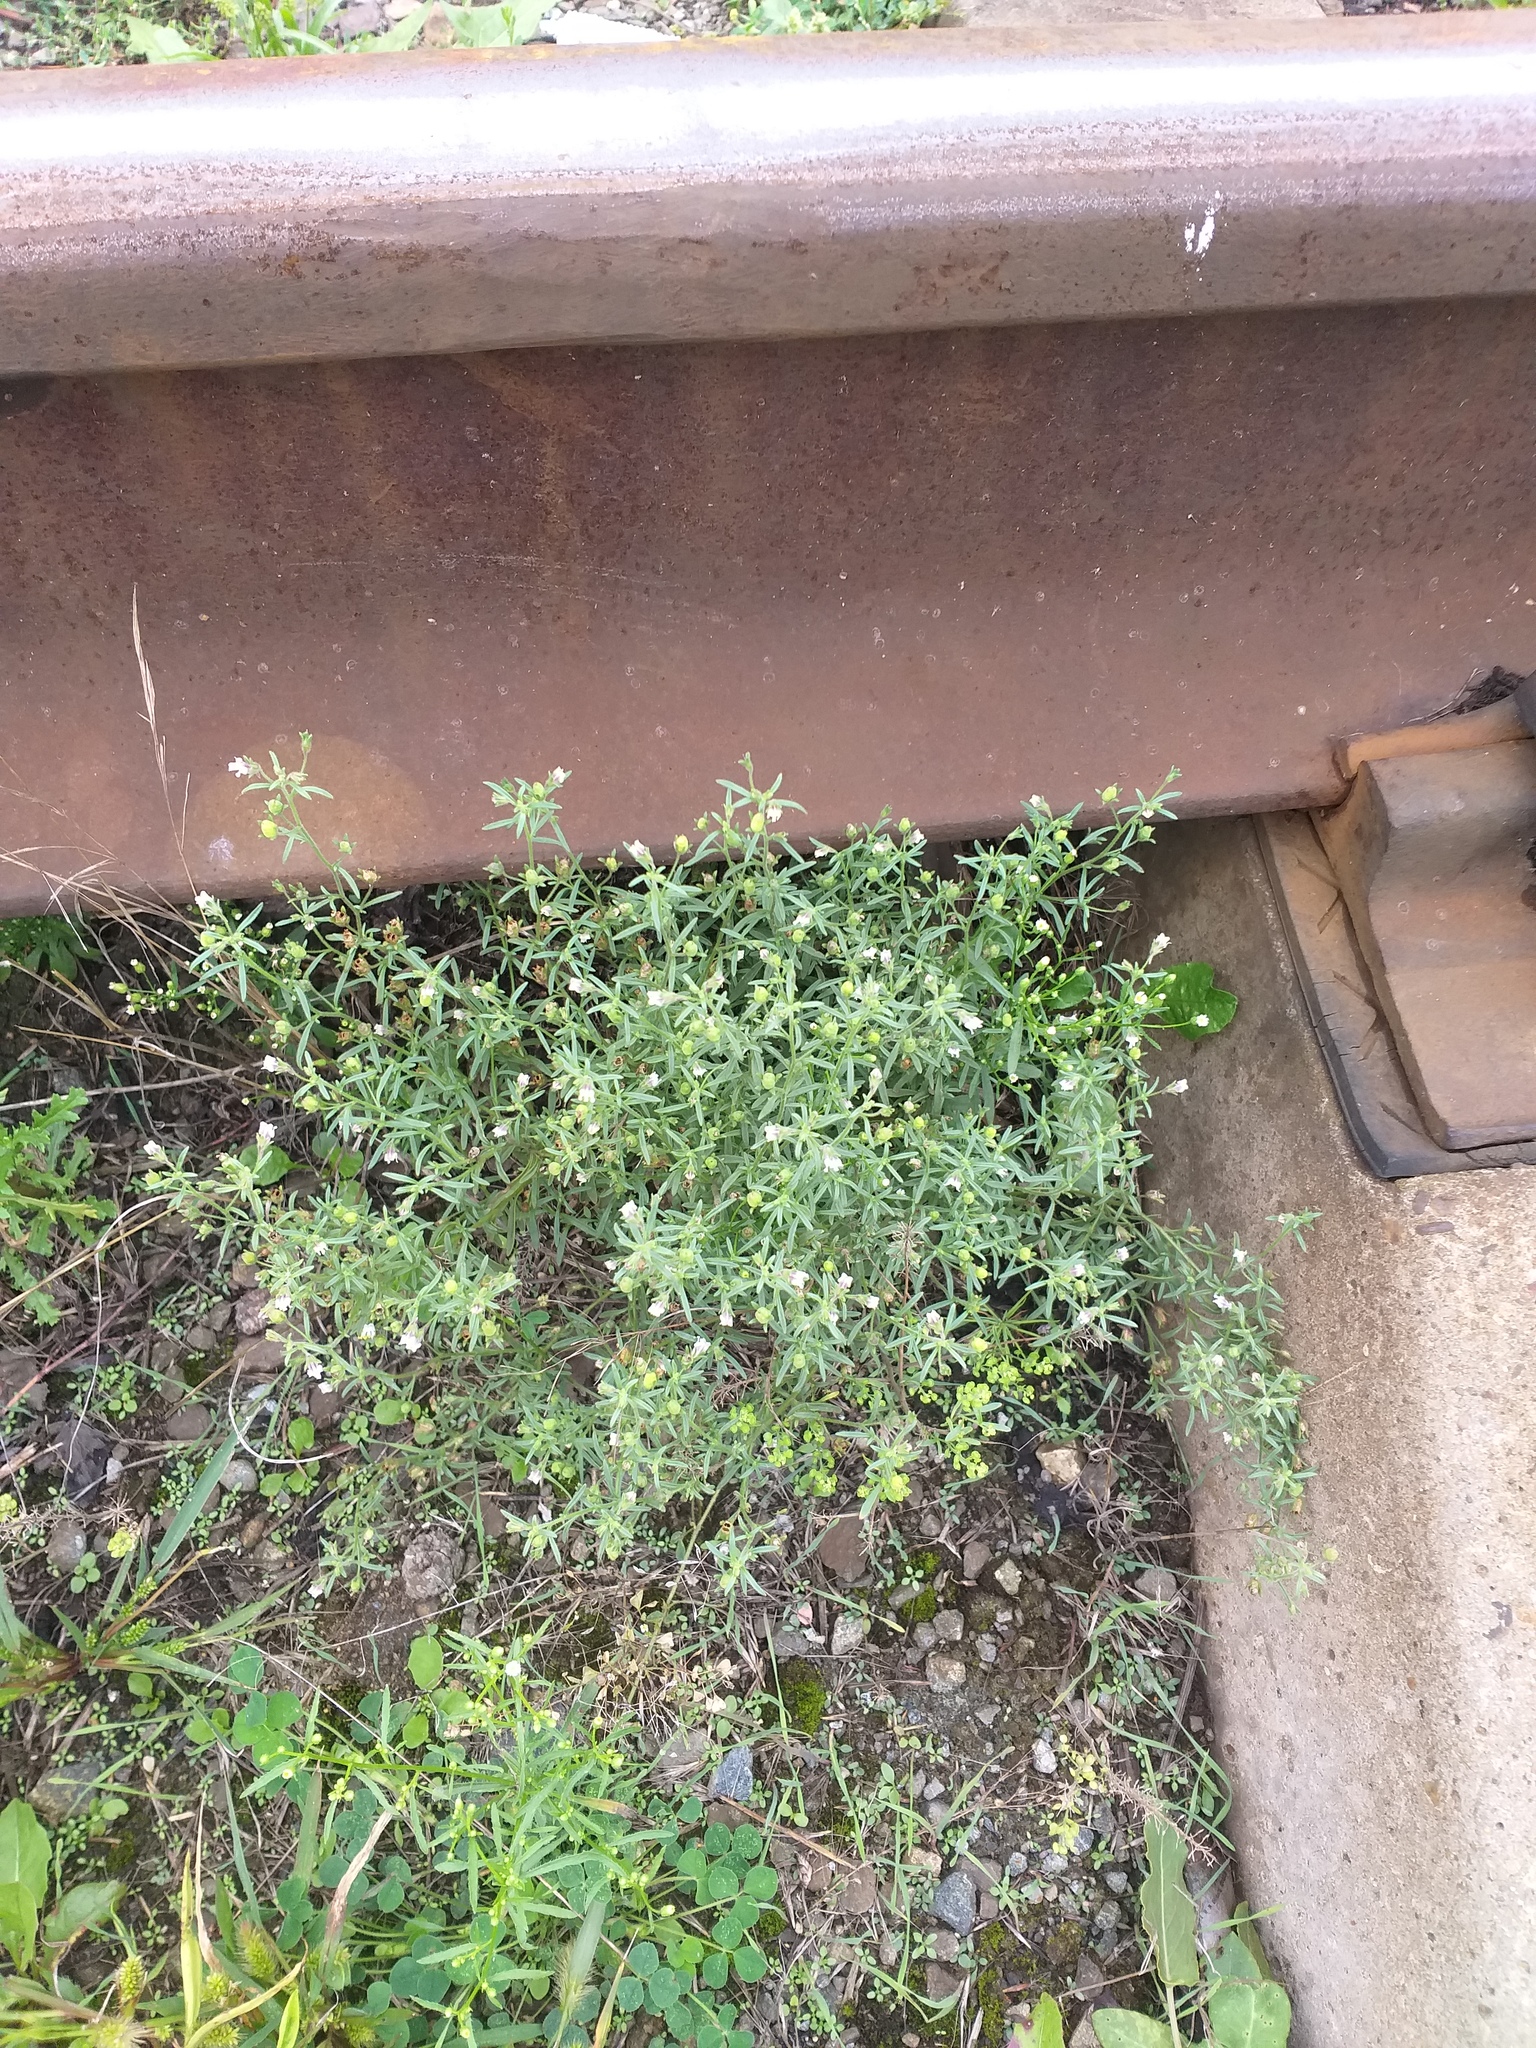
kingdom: Plantae
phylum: Tracheophyta
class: Magnoliopsida
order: Lamiales
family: Plantaginaceae
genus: Chaenorhinum
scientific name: Chaenorhinum minus
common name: Dwarf snapdragon
